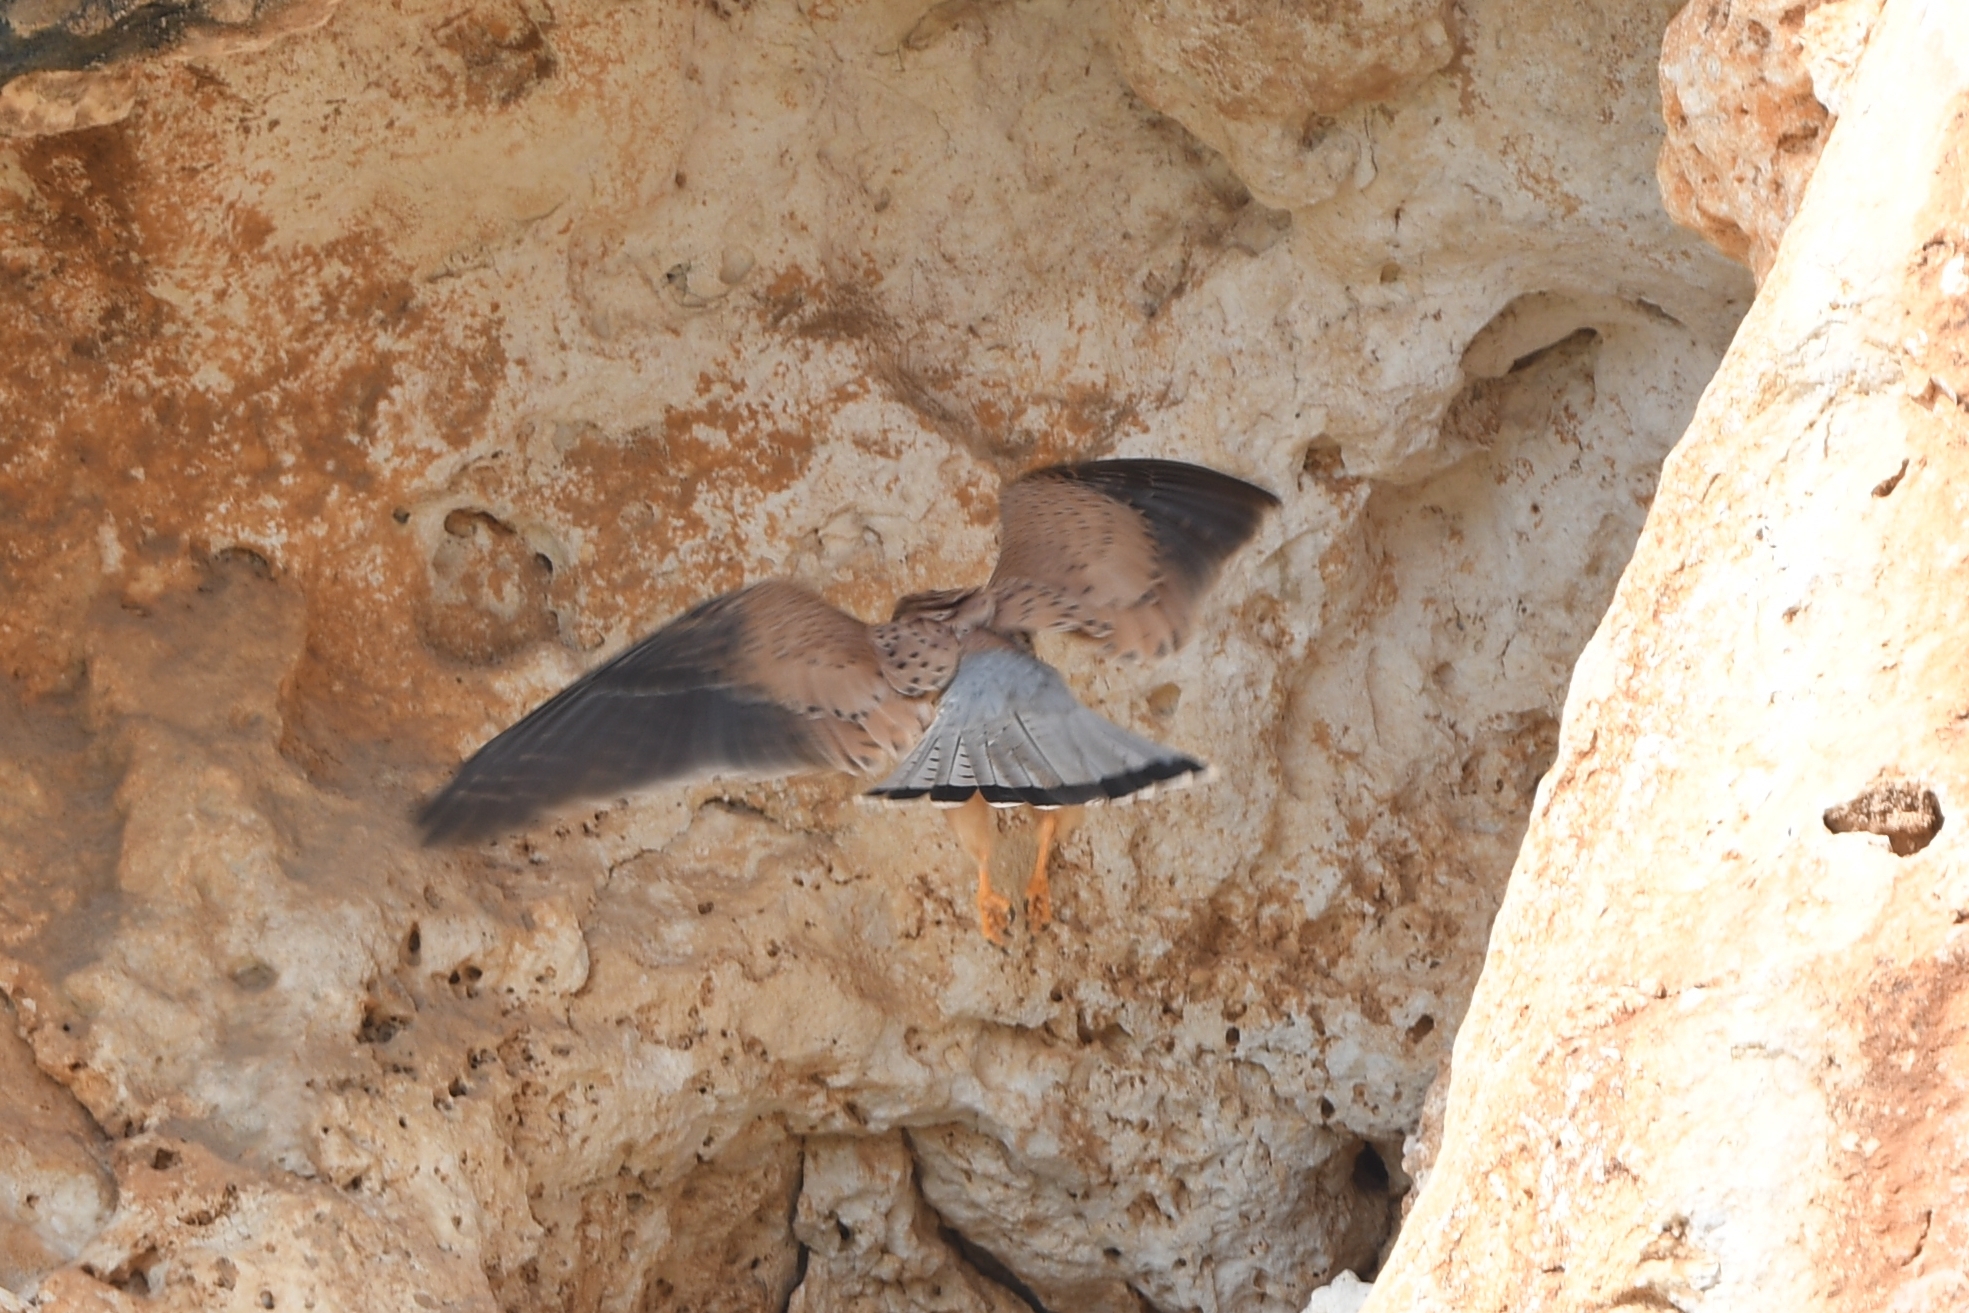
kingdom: Animalia
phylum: Chordata
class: Aves
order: Falconiformes
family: Falconidae
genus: Falco
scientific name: Falco tinnunculus
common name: Common kestrel
